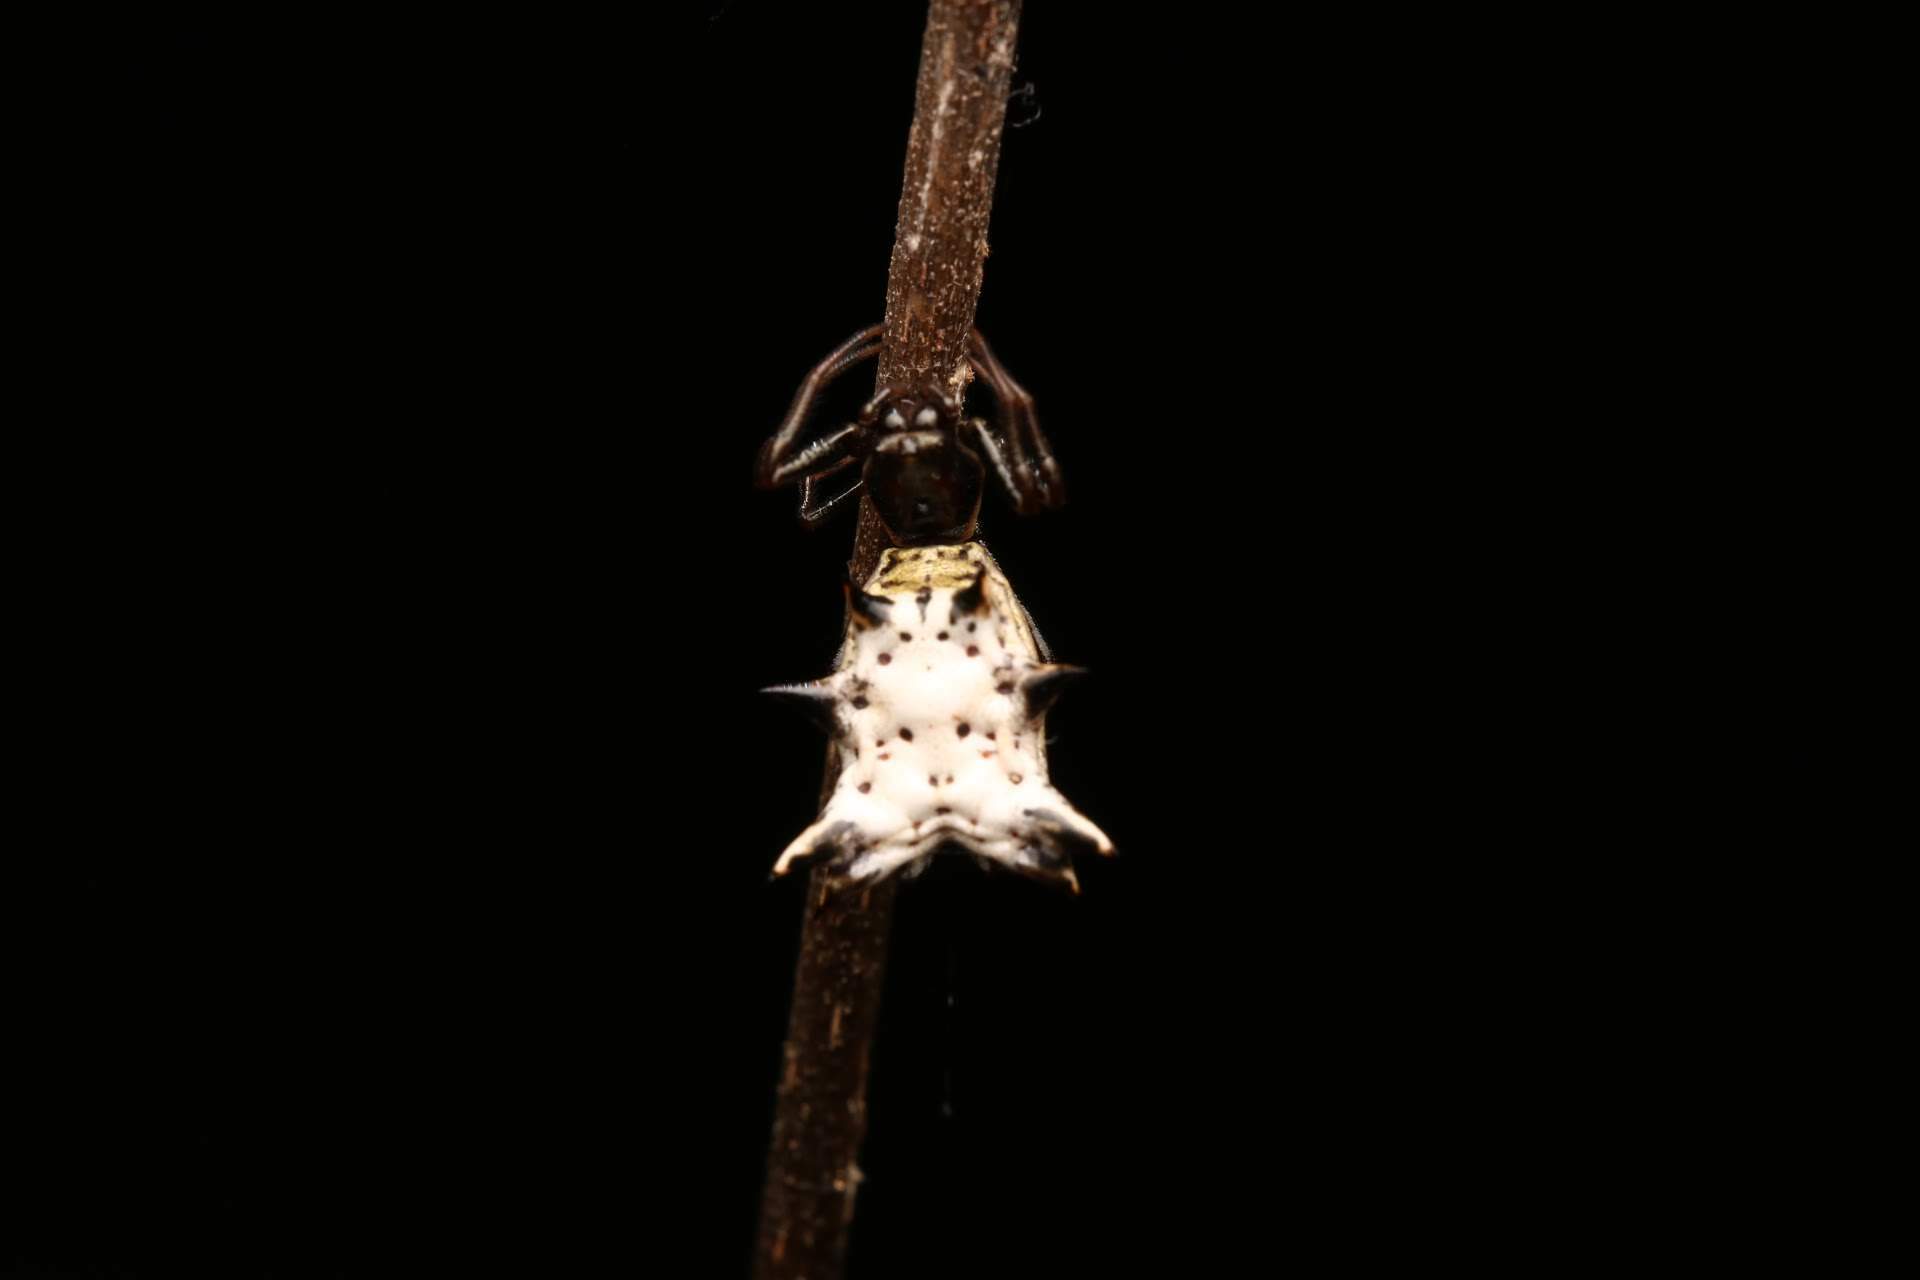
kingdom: Animalia
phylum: Arthropoda
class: Arachnida
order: Araneae
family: Araneidae
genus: Micrathena
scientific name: Micrathena gracilis
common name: Orb weavers
